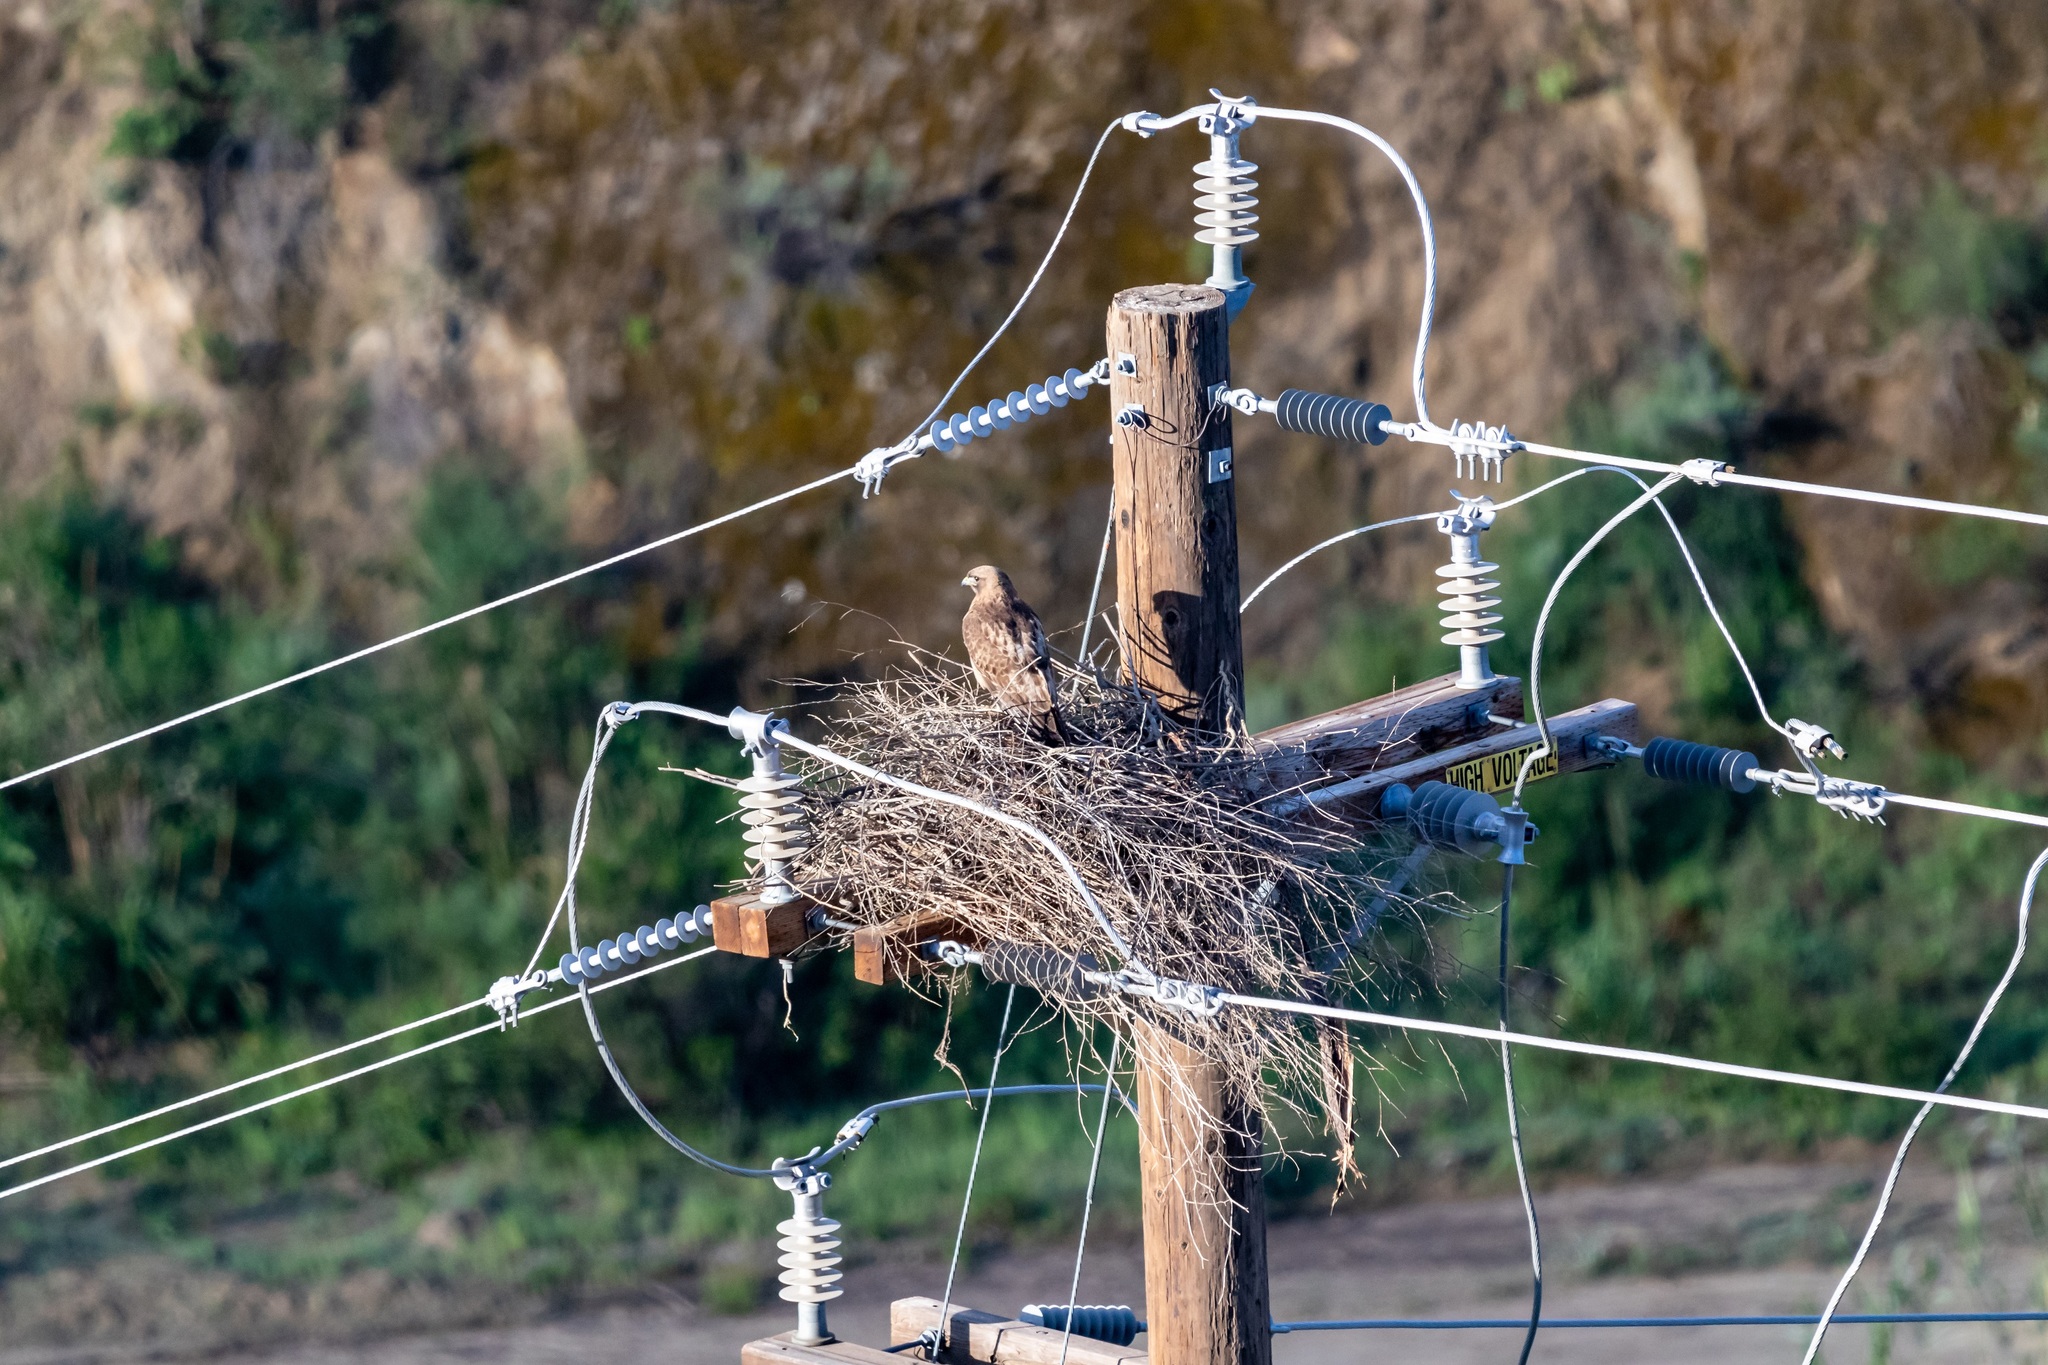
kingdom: Animalia
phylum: Chordata
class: Aves
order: Accipitriformes
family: Accipitridae
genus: Buteo
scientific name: Buteo jamaicensis
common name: Red-tailed hawk
